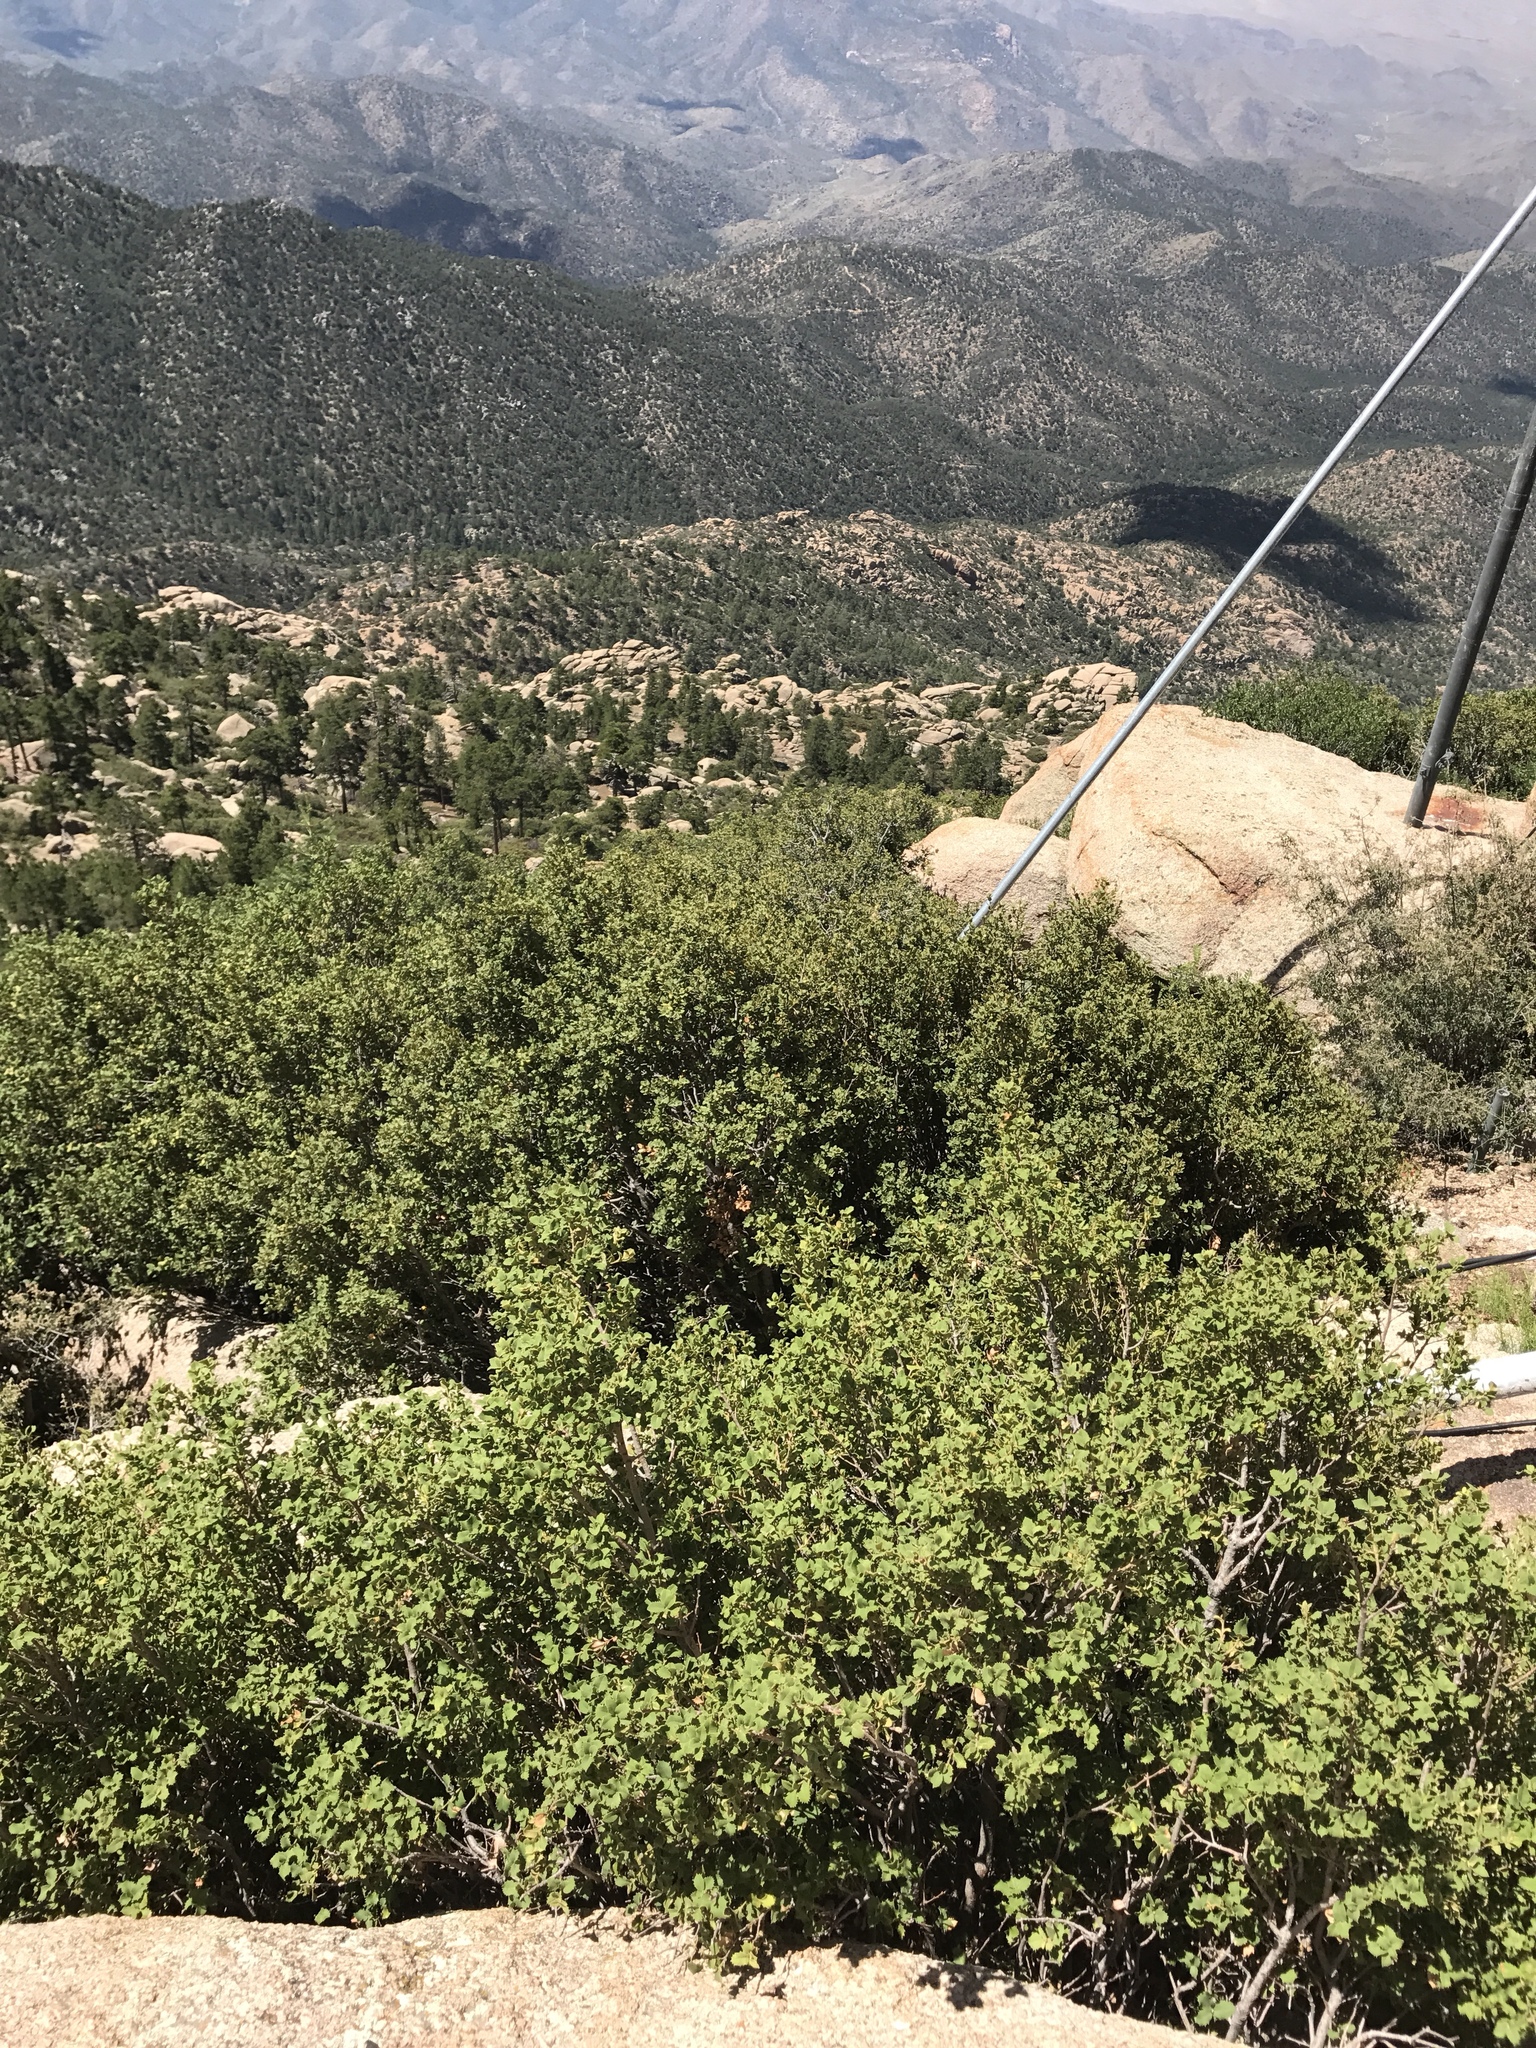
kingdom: Plantae
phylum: Tracheophyta
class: Magnoliopsida
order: Fagales
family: Fagaceae
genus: Quercus
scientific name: Quercus turbinella
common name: Sonoran scrub oak
